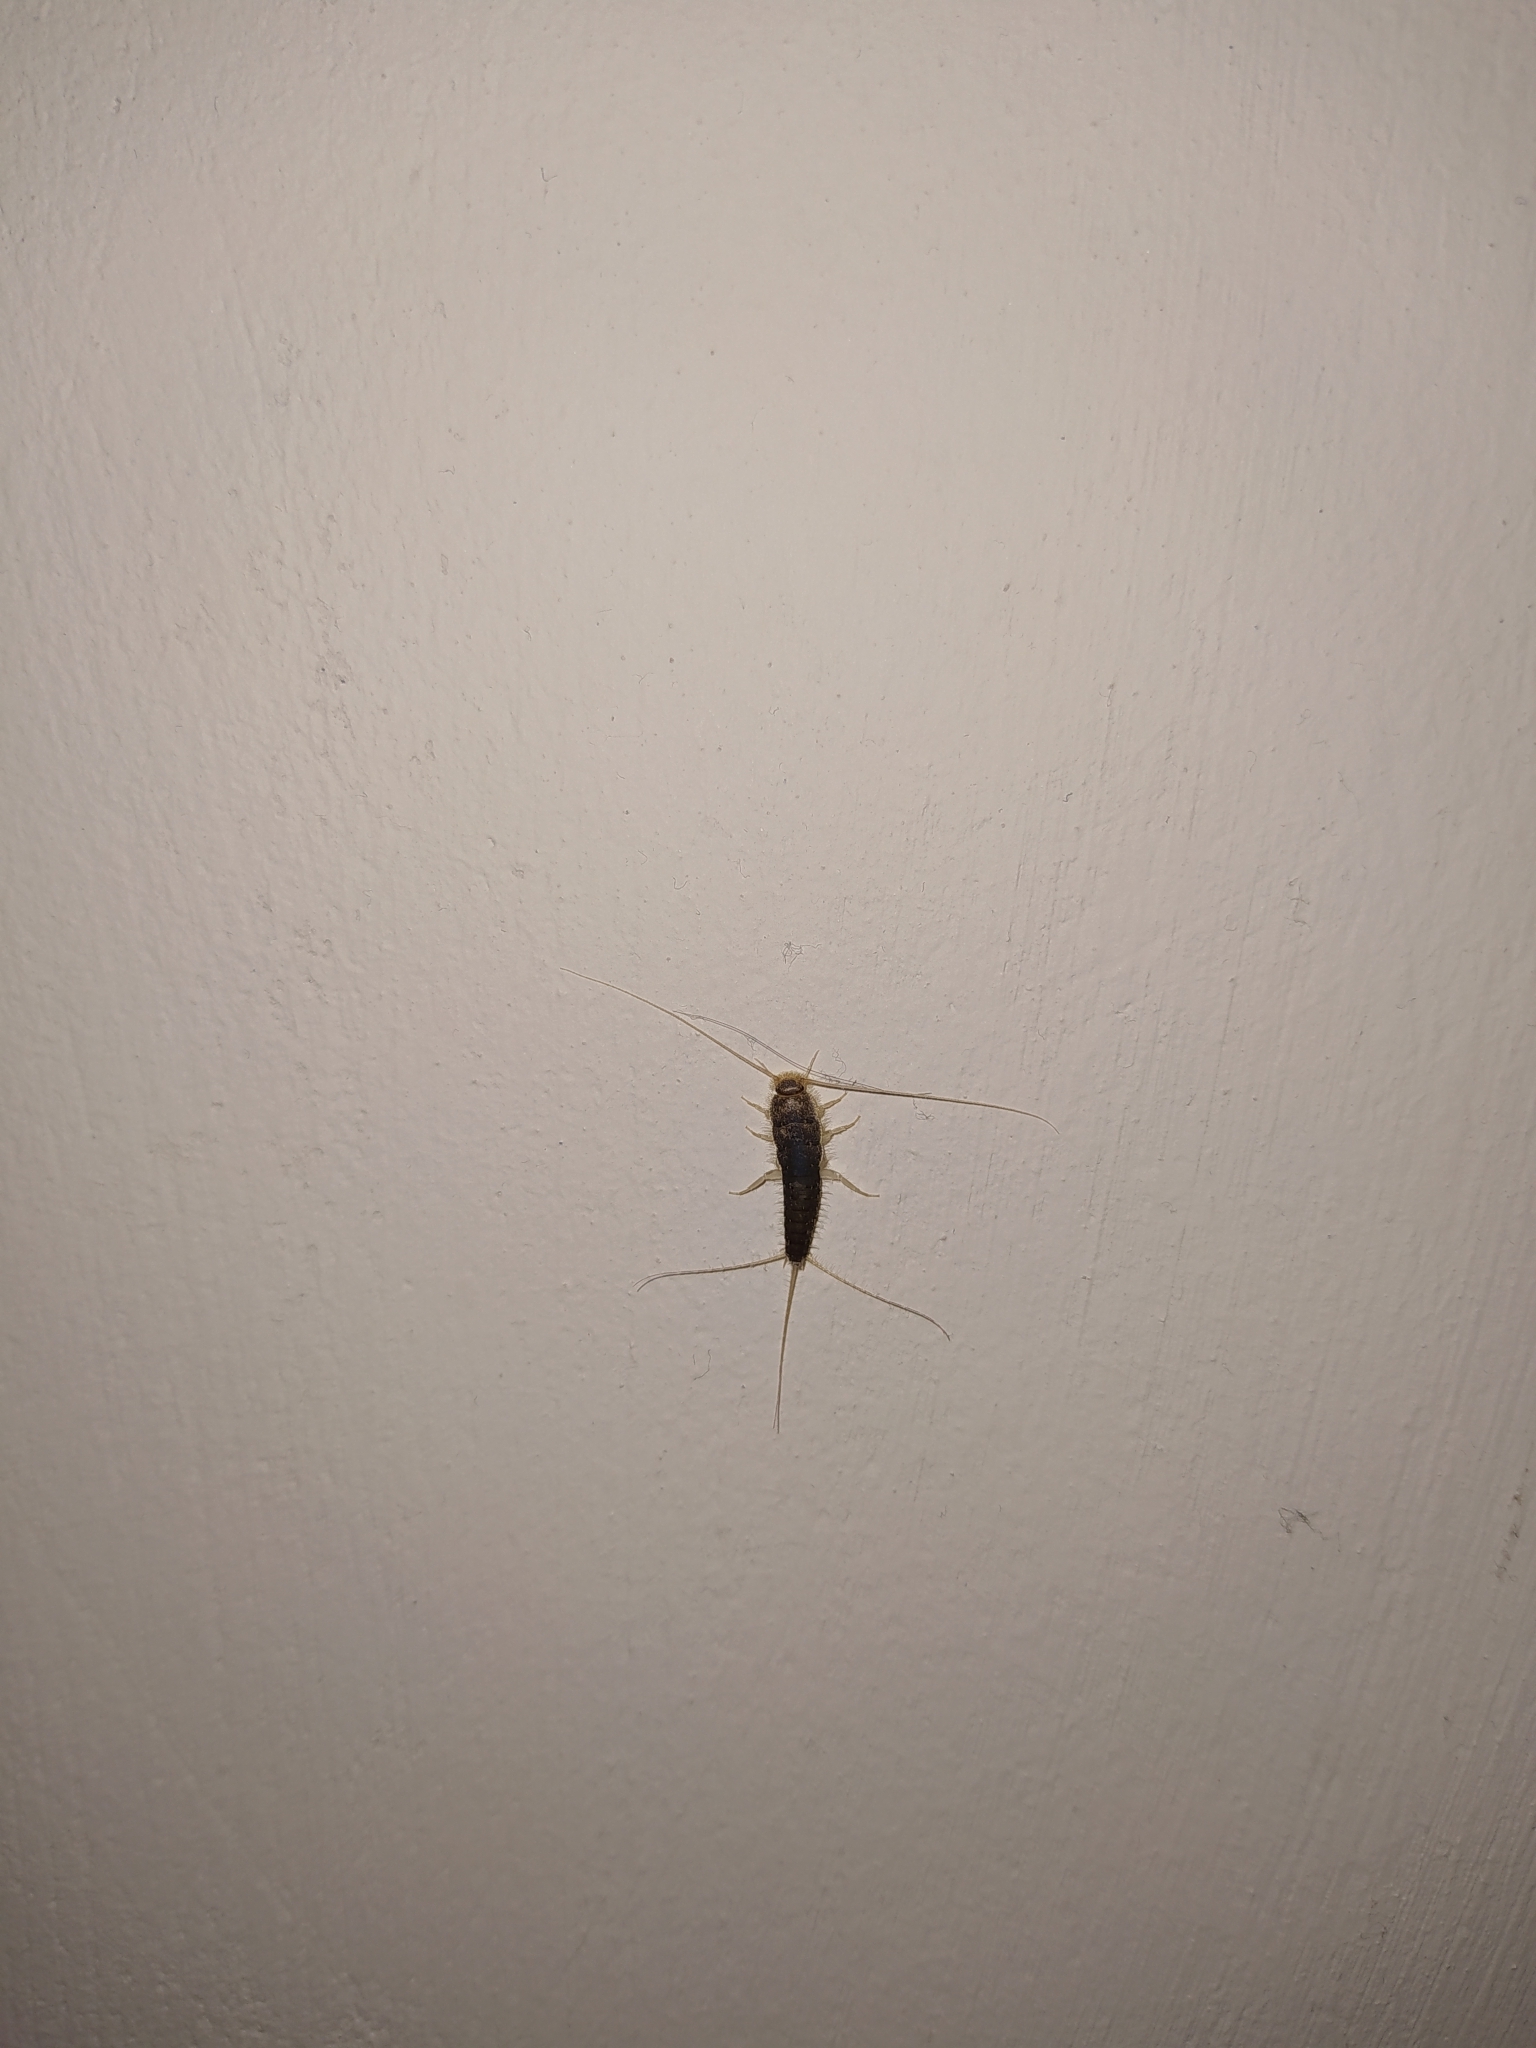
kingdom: Animalia
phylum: Arthropoda
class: Insecta
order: Zygentoma
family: Lepismatidae
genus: Ctenolepisma
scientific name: Ctenolepisma longicaudatum
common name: Silverfish
